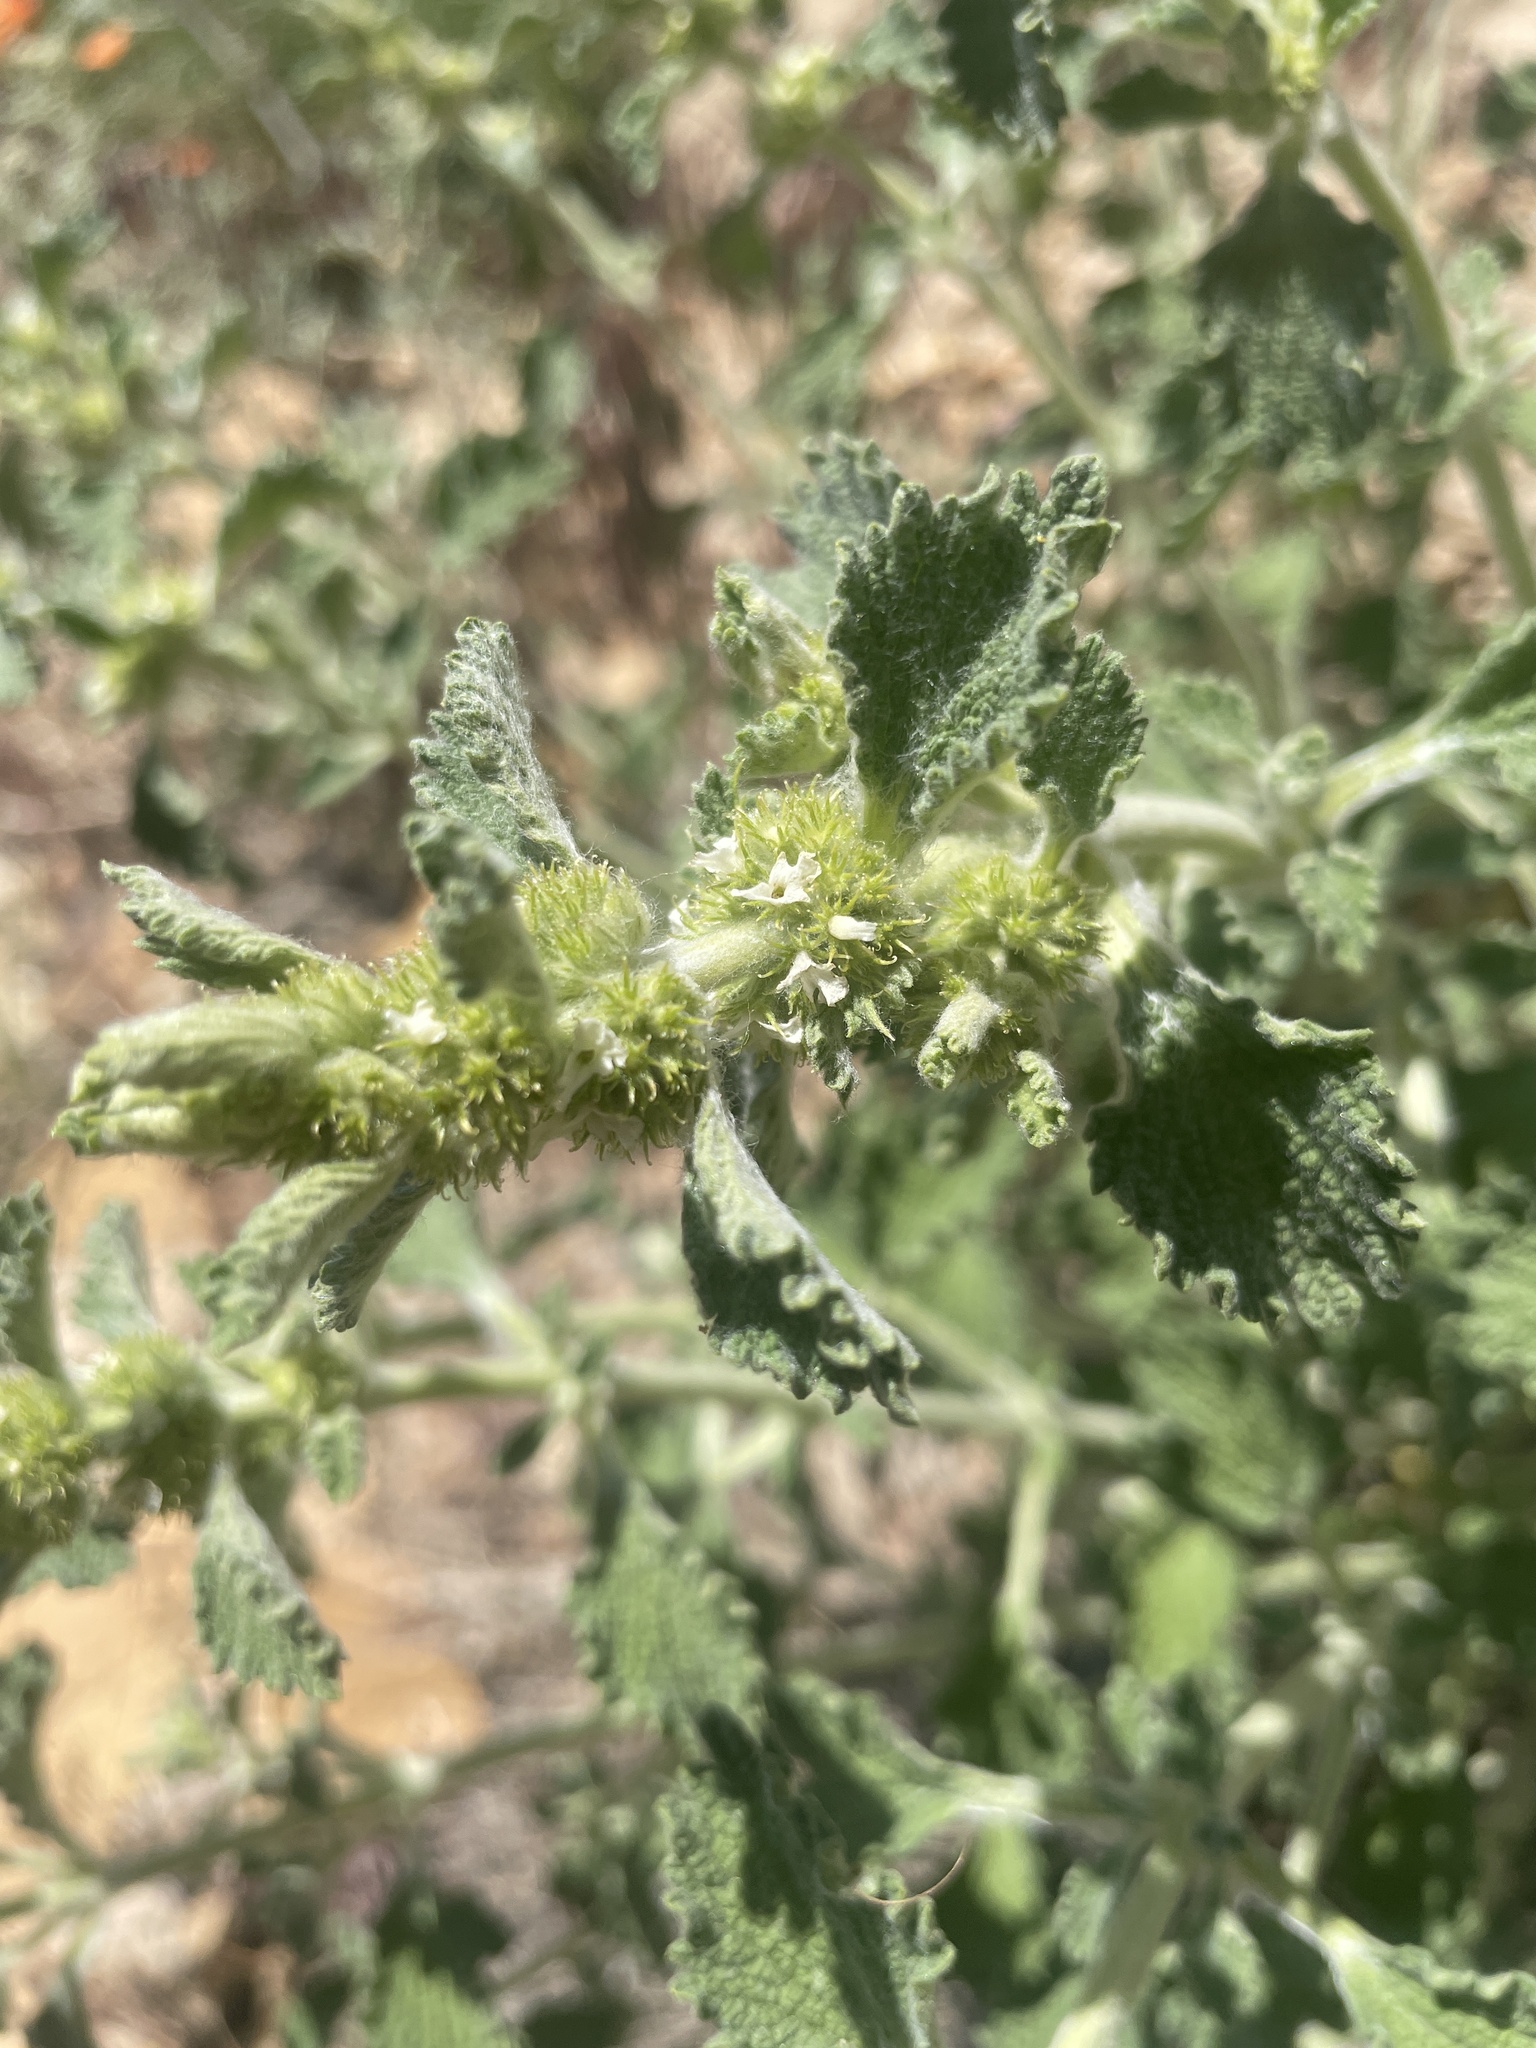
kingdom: Plantae
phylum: Tracheophyta
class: Magnoliopsida
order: Lamiales
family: Lamiaceae
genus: Marrubium
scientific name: Marrubium vulgare
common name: Horehound
